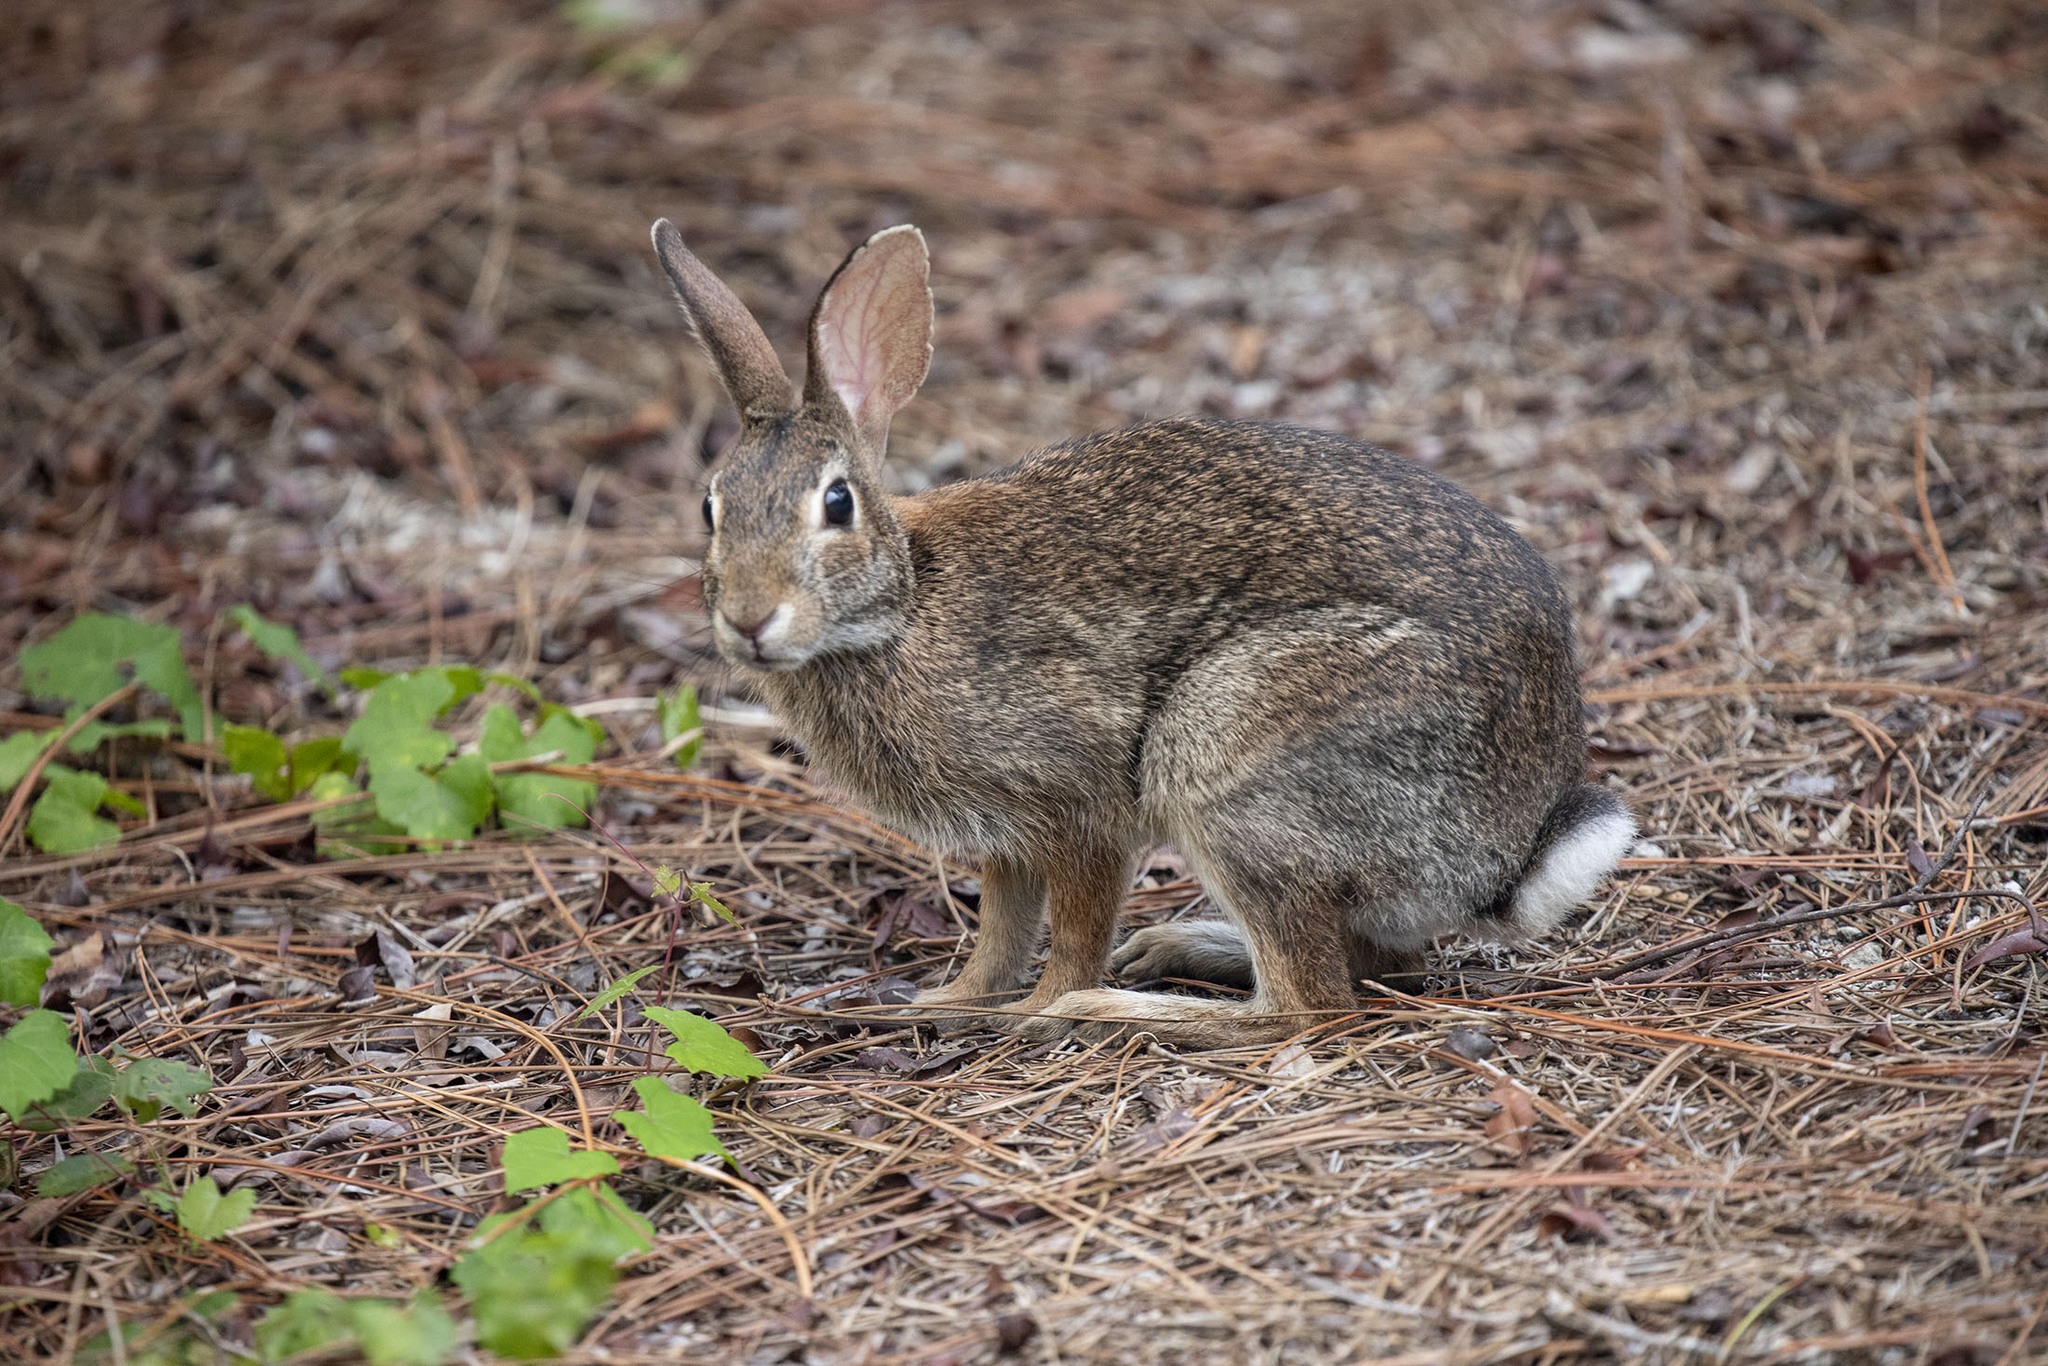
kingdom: Animalia
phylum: Chordata
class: Mammalia
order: Lagomorpha
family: Leporidae
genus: Sylvilagus
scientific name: Sylvilagus floridanus
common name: Eastern cottontail
